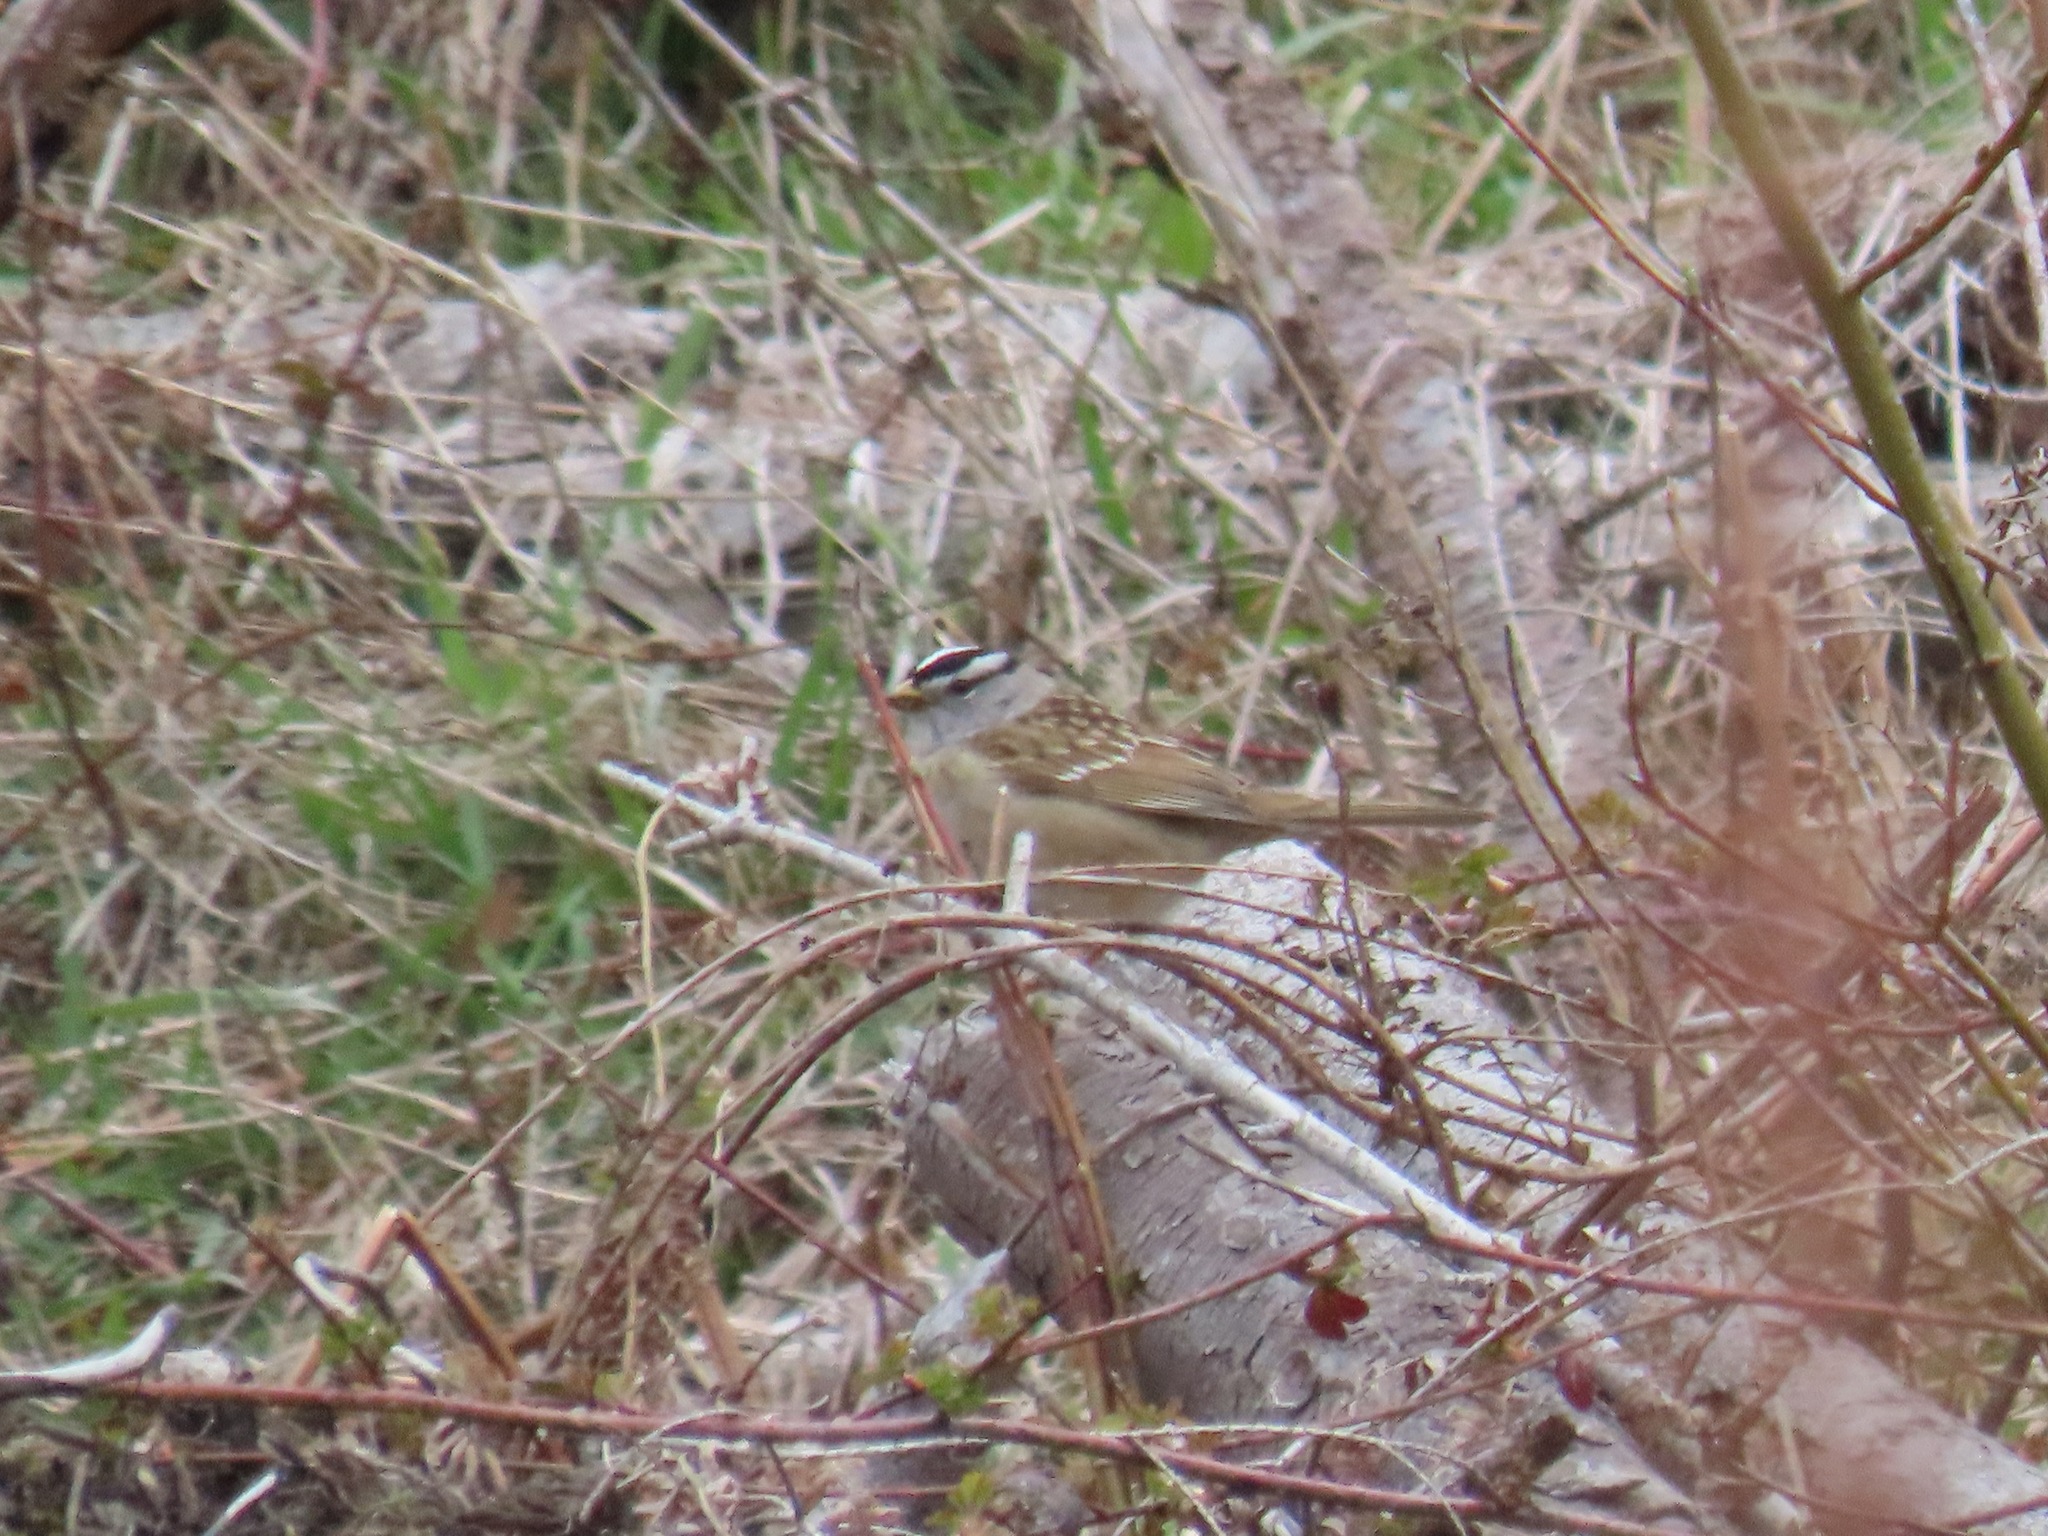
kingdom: Animalia
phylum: Chordata
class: Aves
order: Passeriformes
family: Passerellidae
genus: Zonotrichia
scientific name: Zonotrichia leucophrys
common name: White-crowned sparrow
